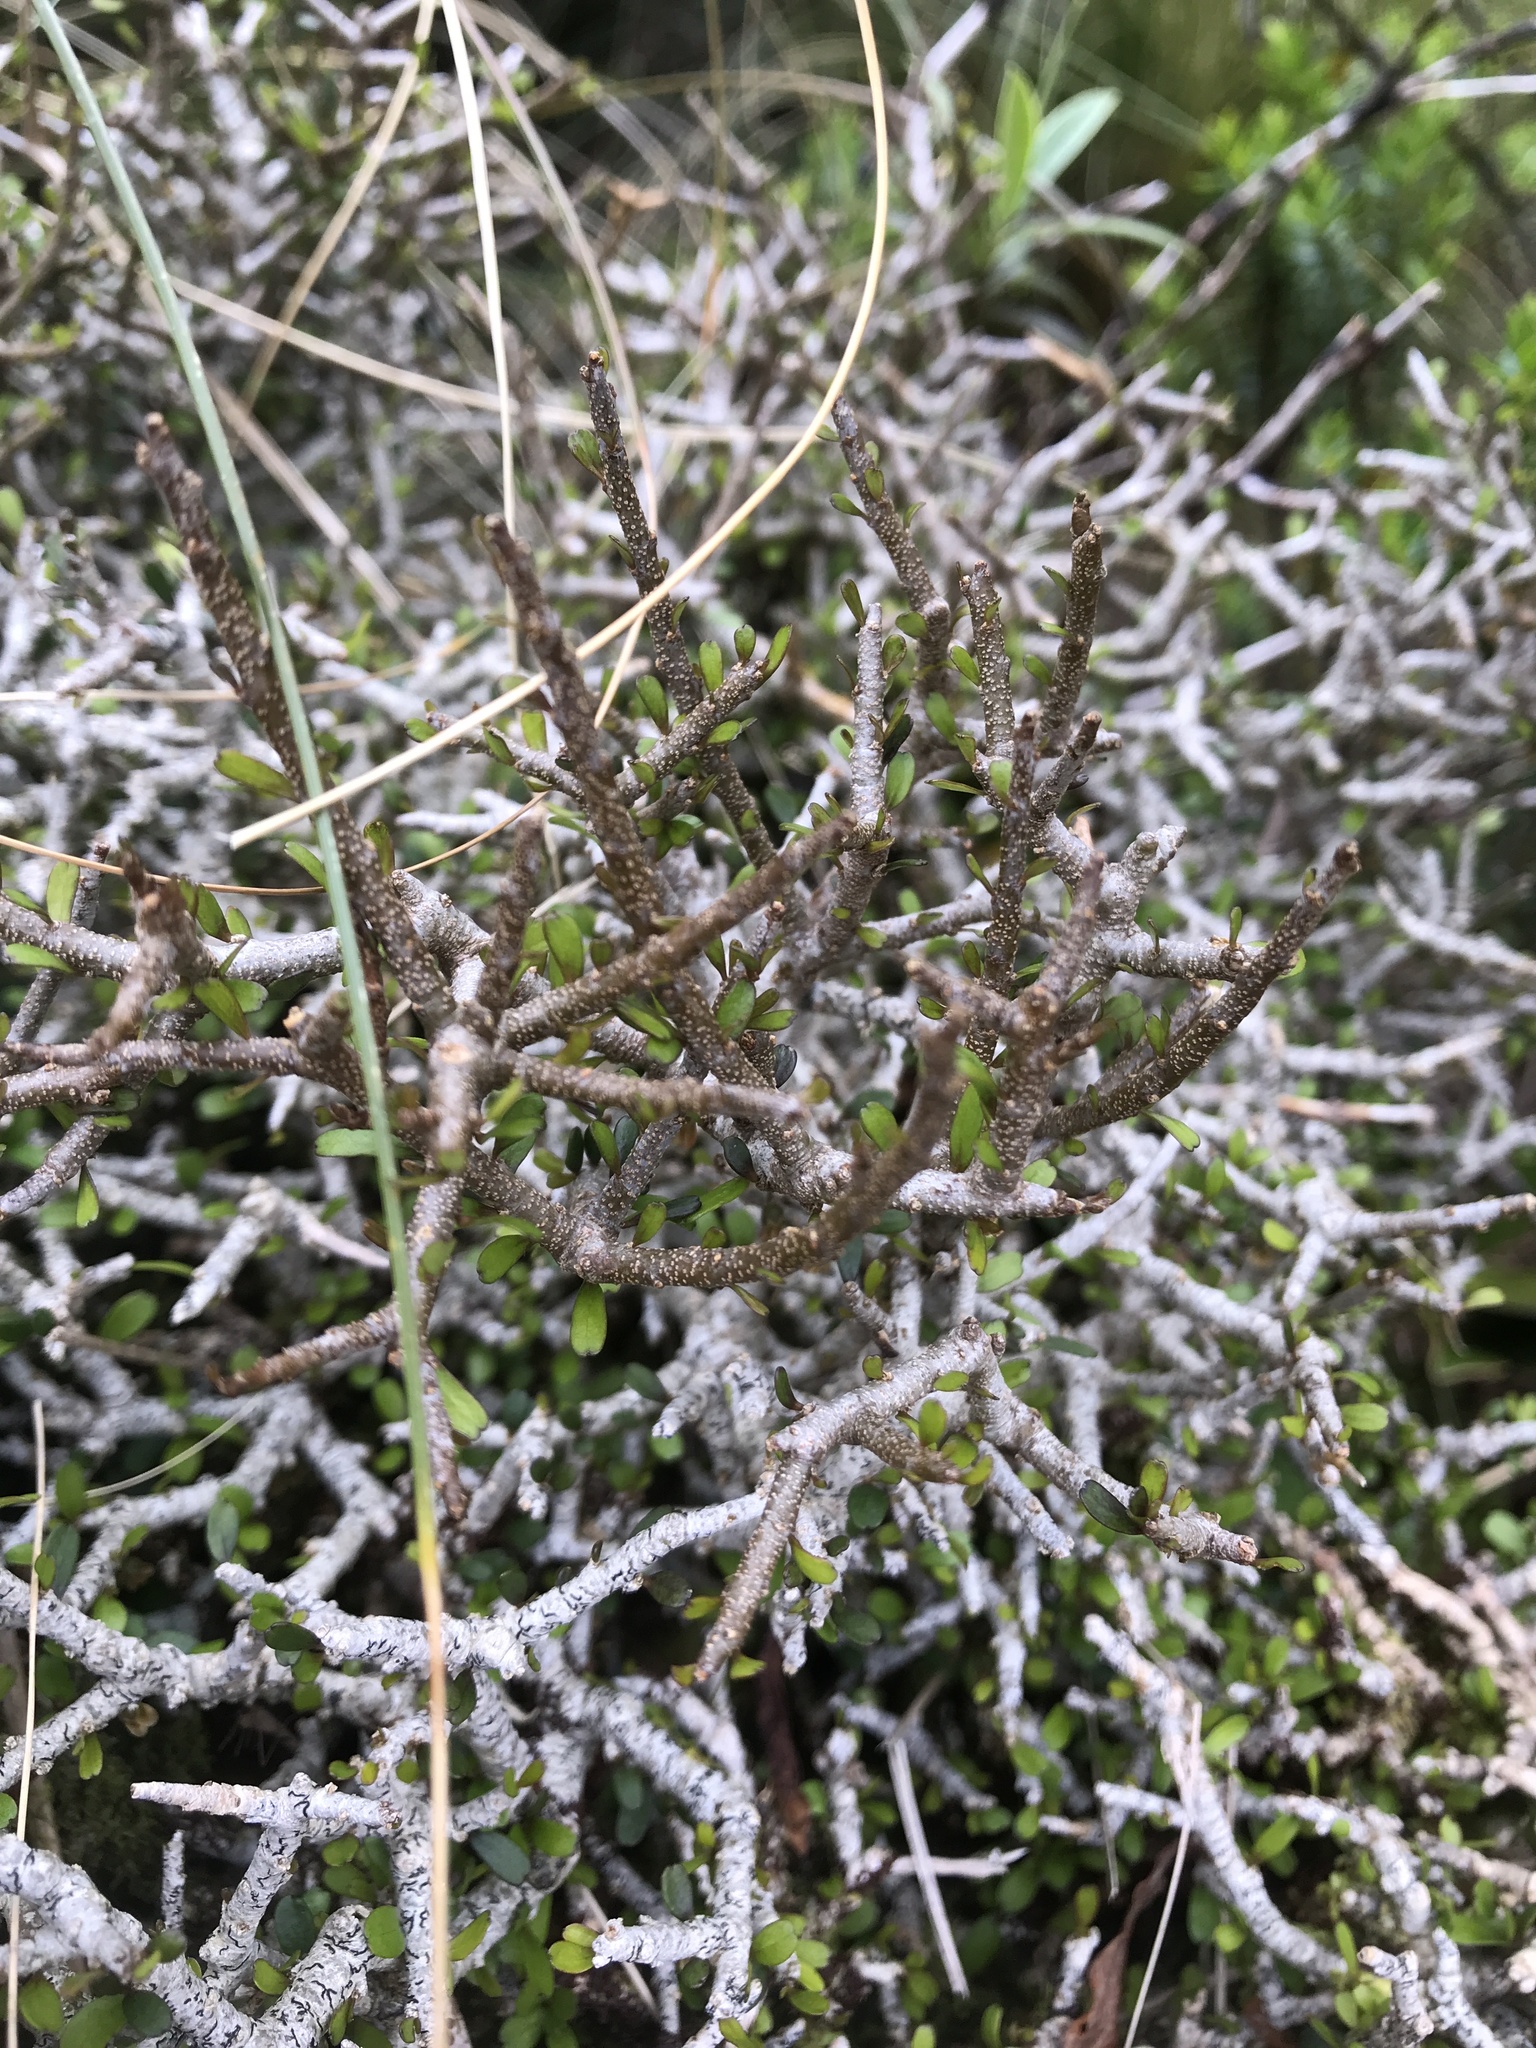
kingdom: Plantae
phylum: Tracheophyta
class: Magnoliopsida
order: Malpighiales
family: Violaceae
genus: Melicytus
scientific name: Melicytus drucei
